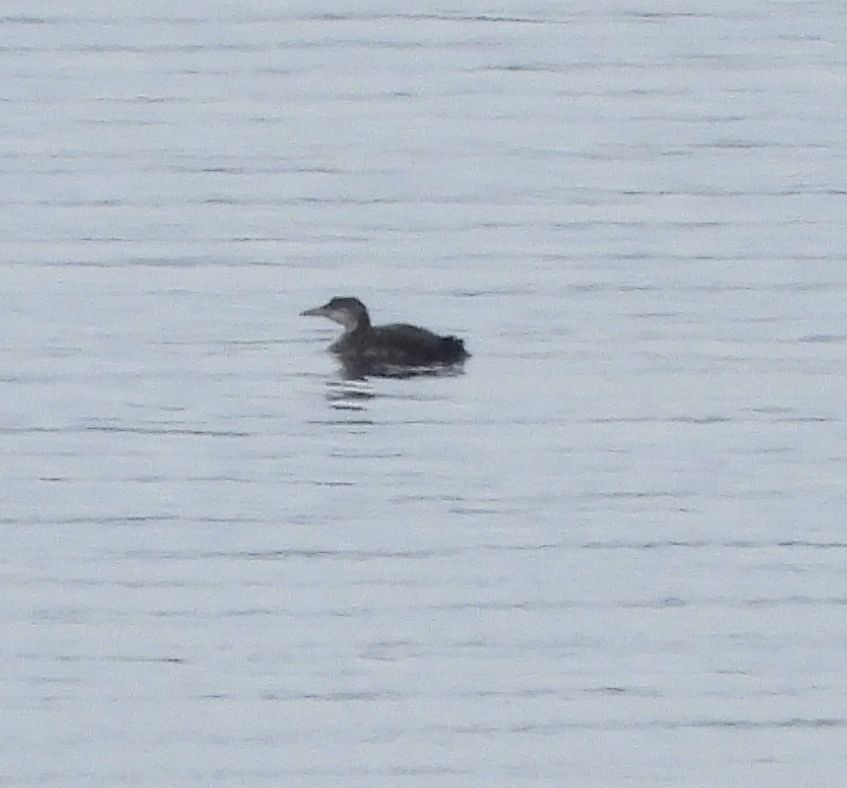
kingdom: Animalia
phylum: Chordata
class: Aves
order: Gaviiformes
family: Gaviidae
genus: Gavia
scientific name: Gavia immer
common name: Common loon
